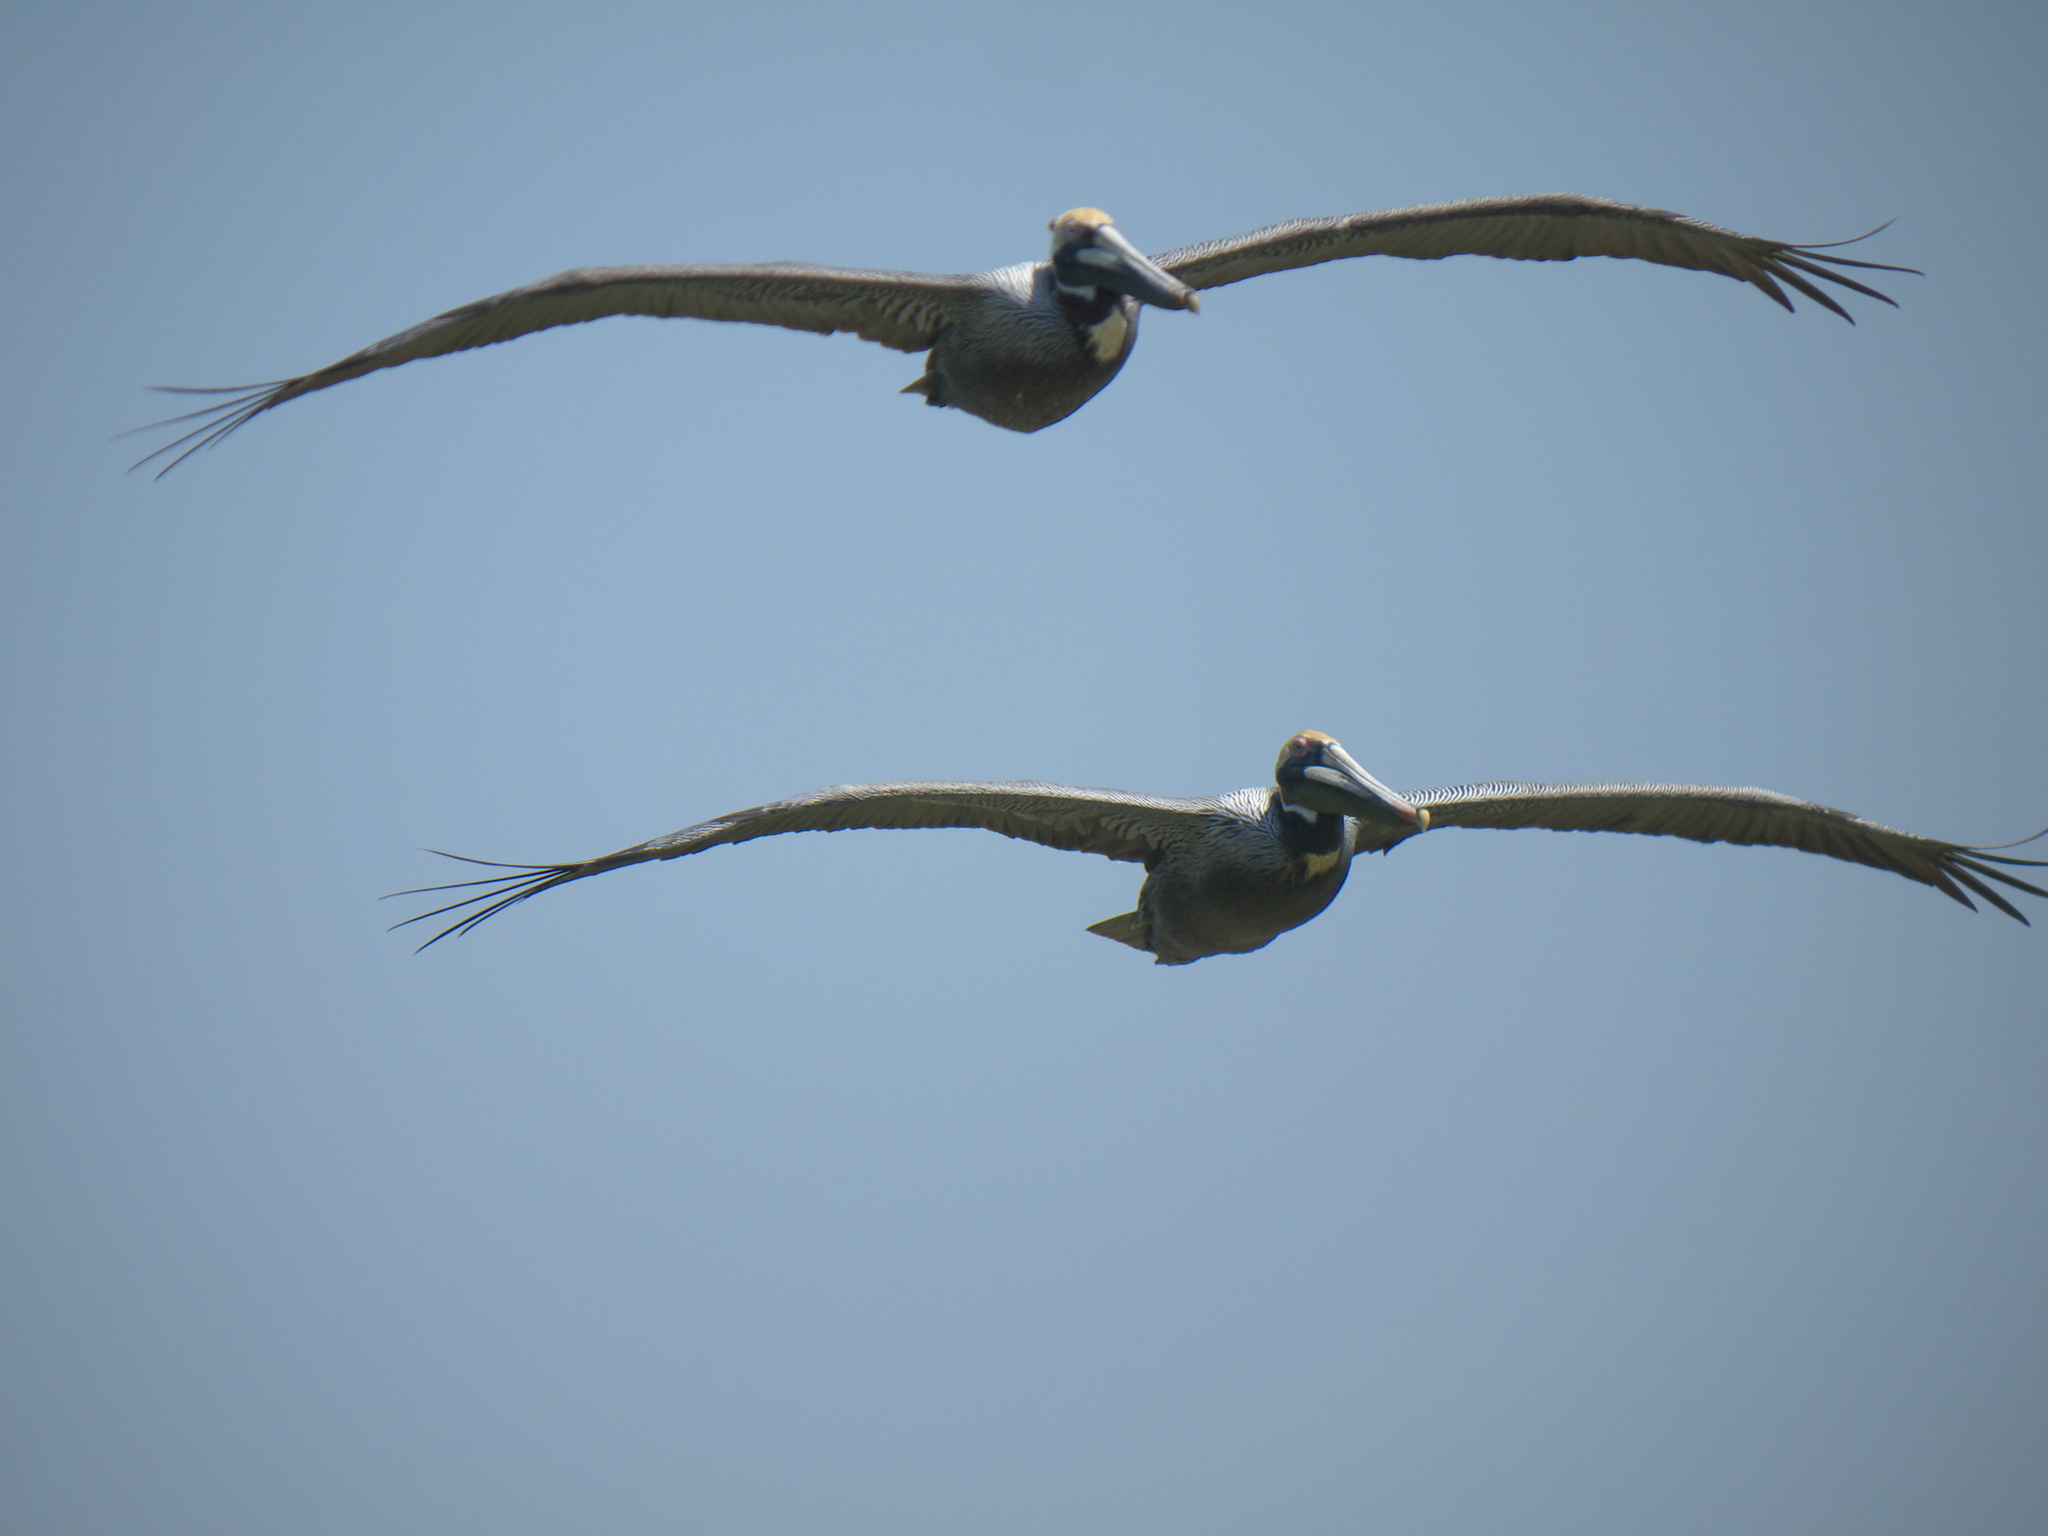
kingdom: Animalia
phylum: Chordata
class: Aves
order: Pelecaniformes
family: Pelecanidae
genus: Pelecanus
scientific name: Pelecanus occidentalis
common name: Brown pelican
